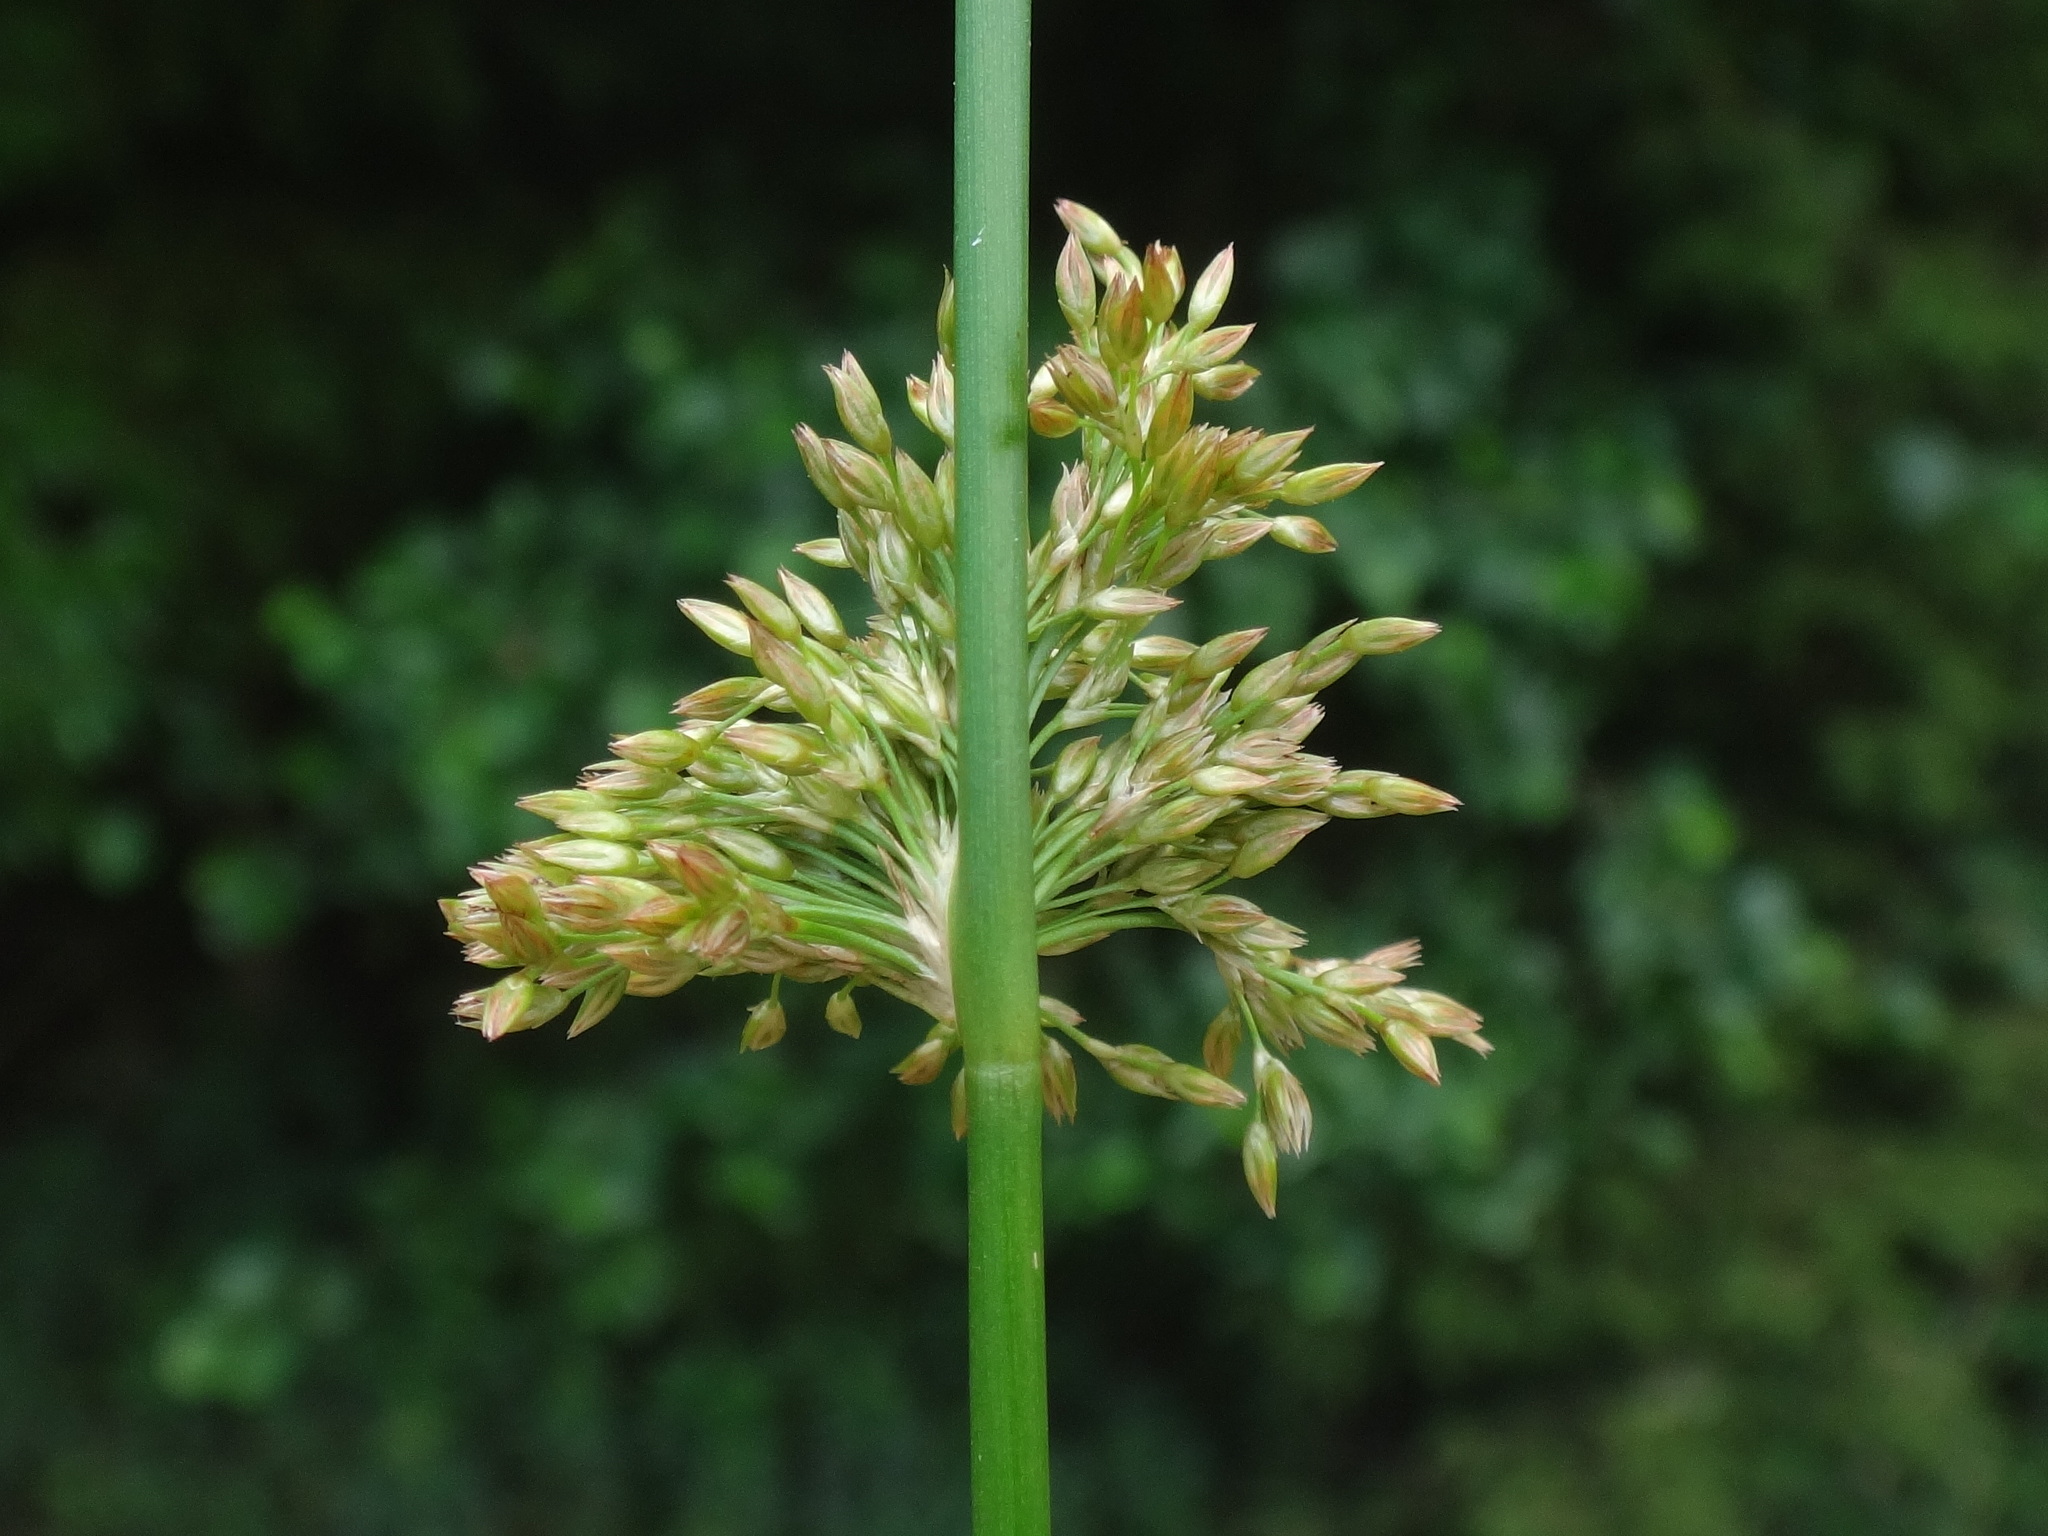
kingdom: Plantae
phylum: Tracheophyta
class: Liliopsida
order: Poales
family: Juncaceae
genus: Juncus
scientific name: Juncus effusus
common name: Soft rush
